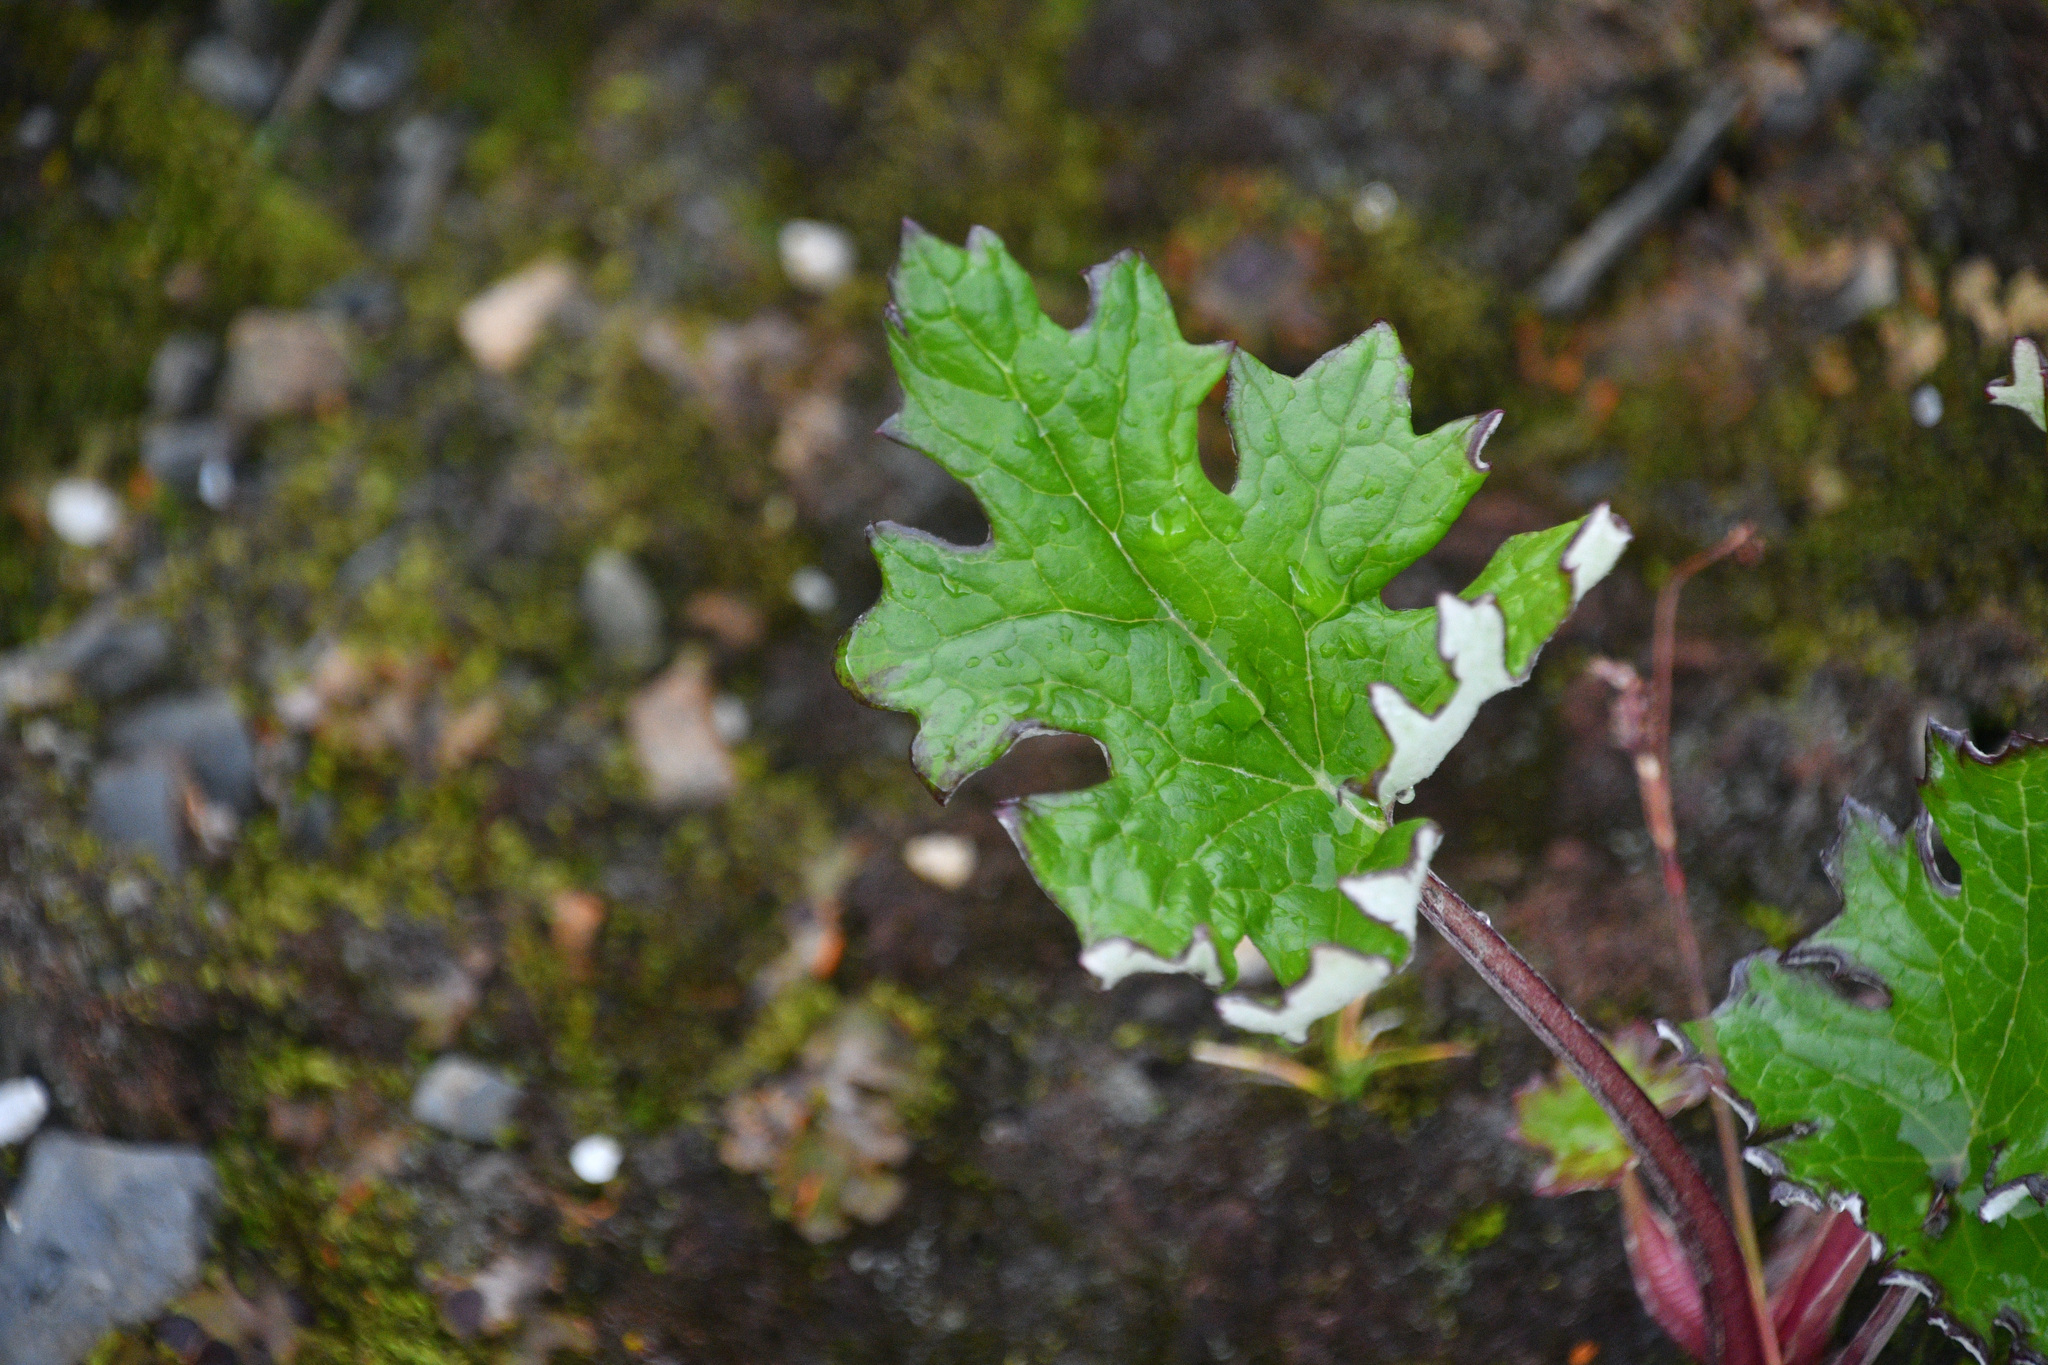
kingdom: Plantae
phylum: Tracheophyta
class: Magnoliopsida
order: Asterales
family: Asteraceae
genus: Petasites
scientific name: Petasites frigidus
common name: Arctic butterbur
